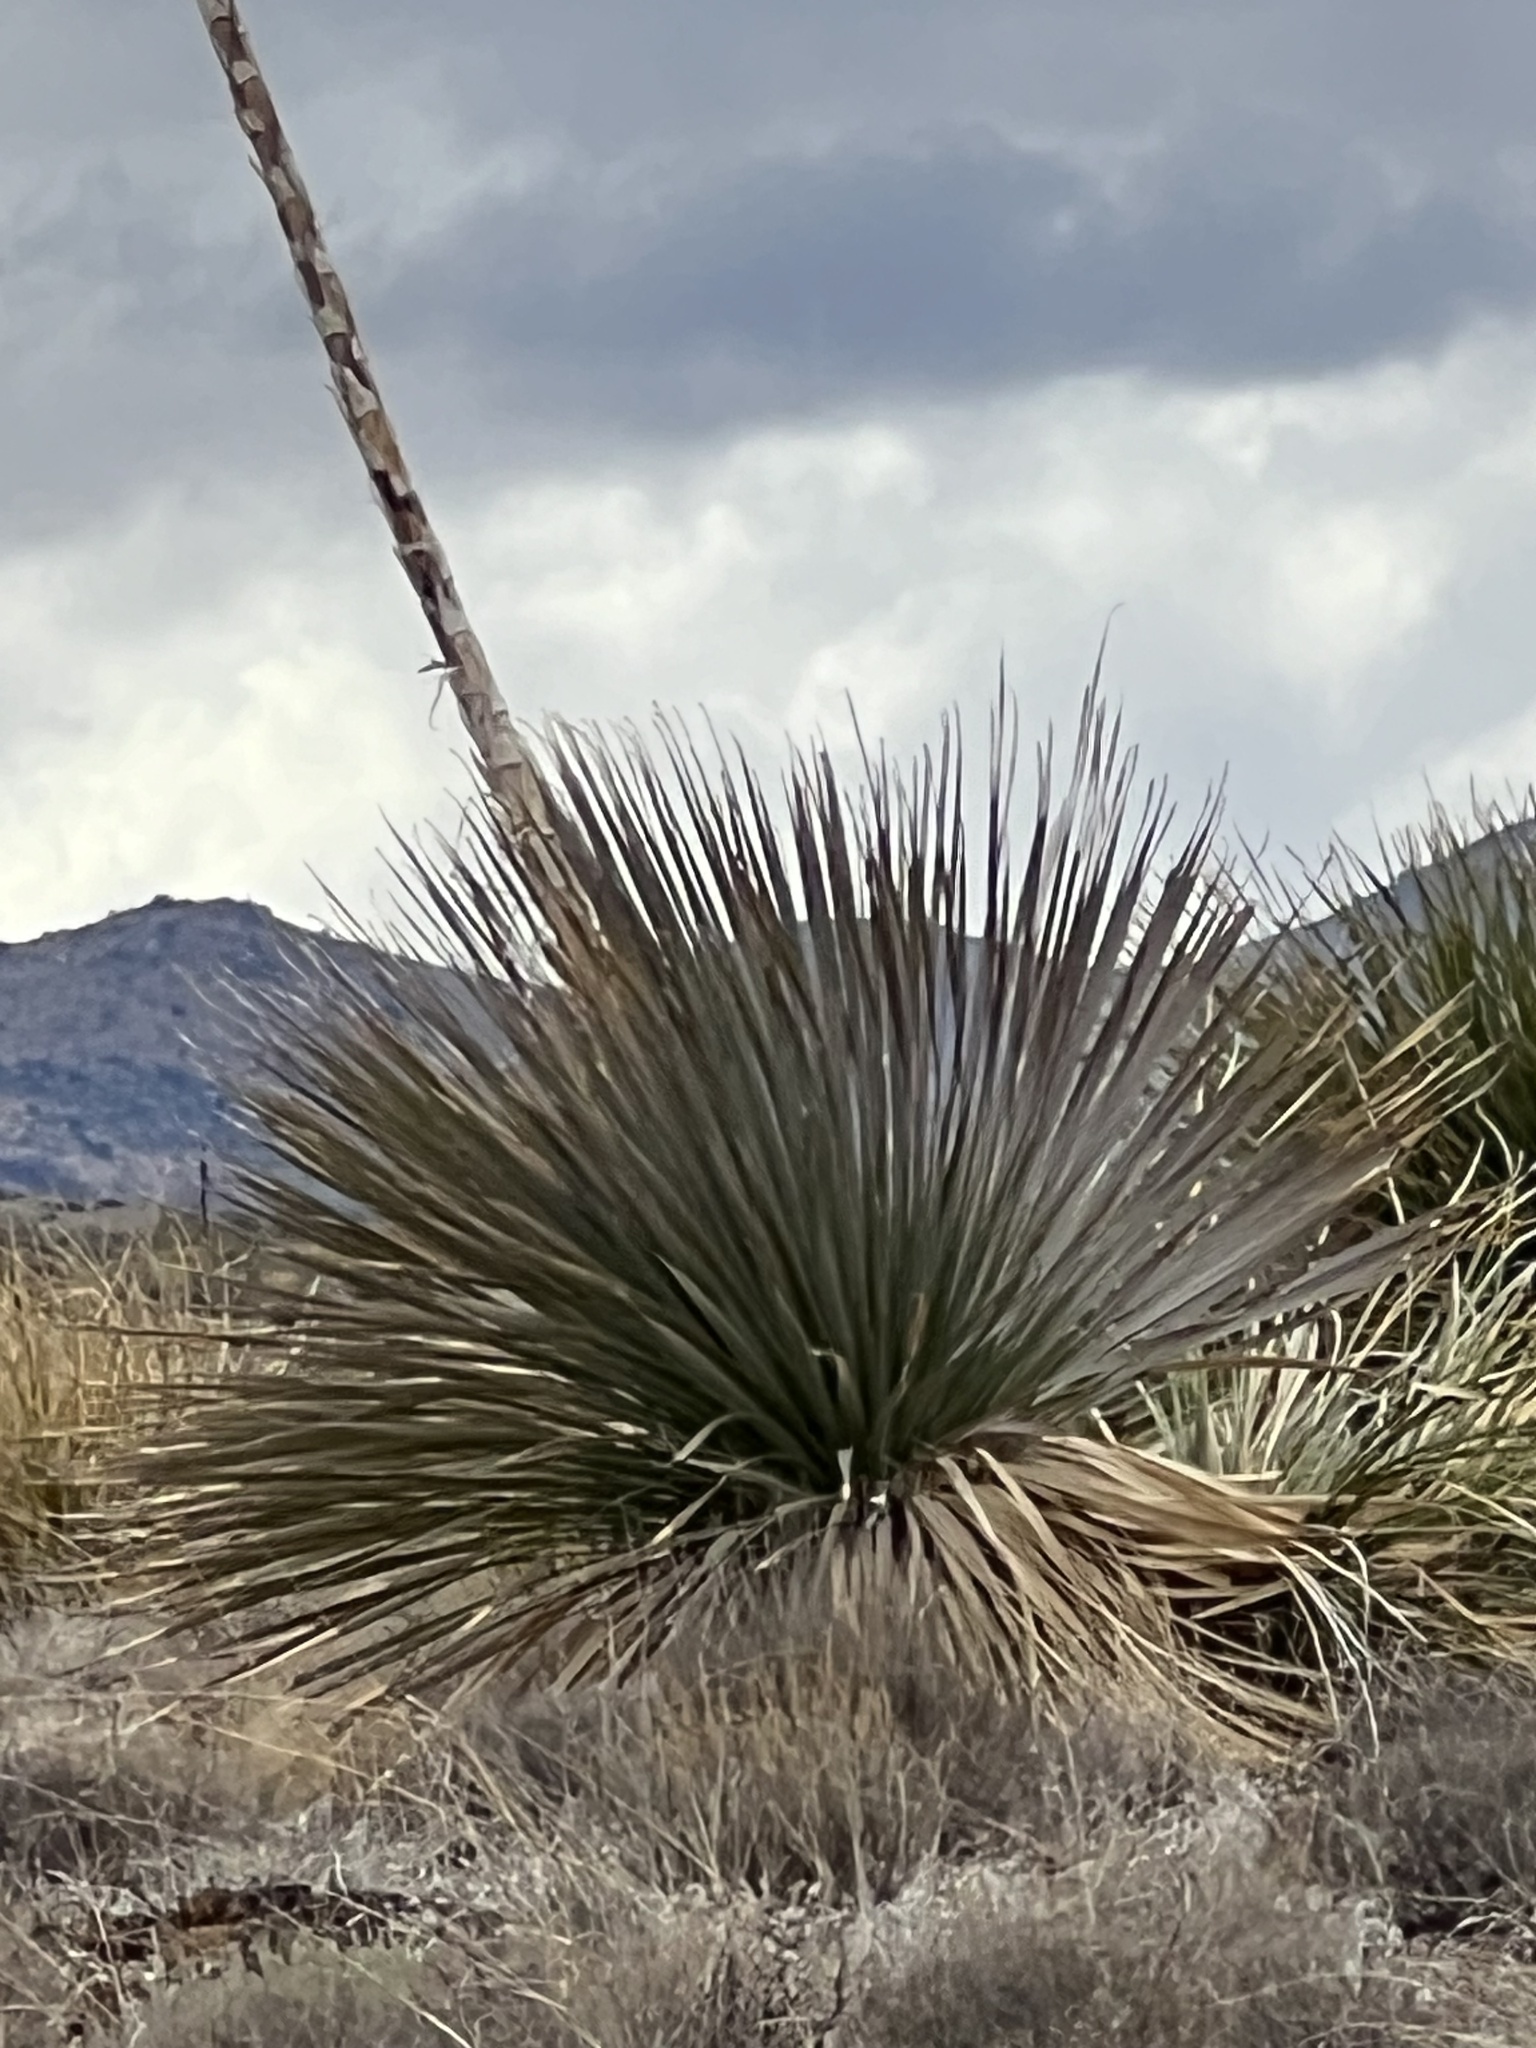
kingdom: Plantae
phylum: Tracheophyta
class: Liliopsida
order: Asparagales
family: Asparagaceae
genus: Dasylirion
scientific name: Dasylirion wheeleri
